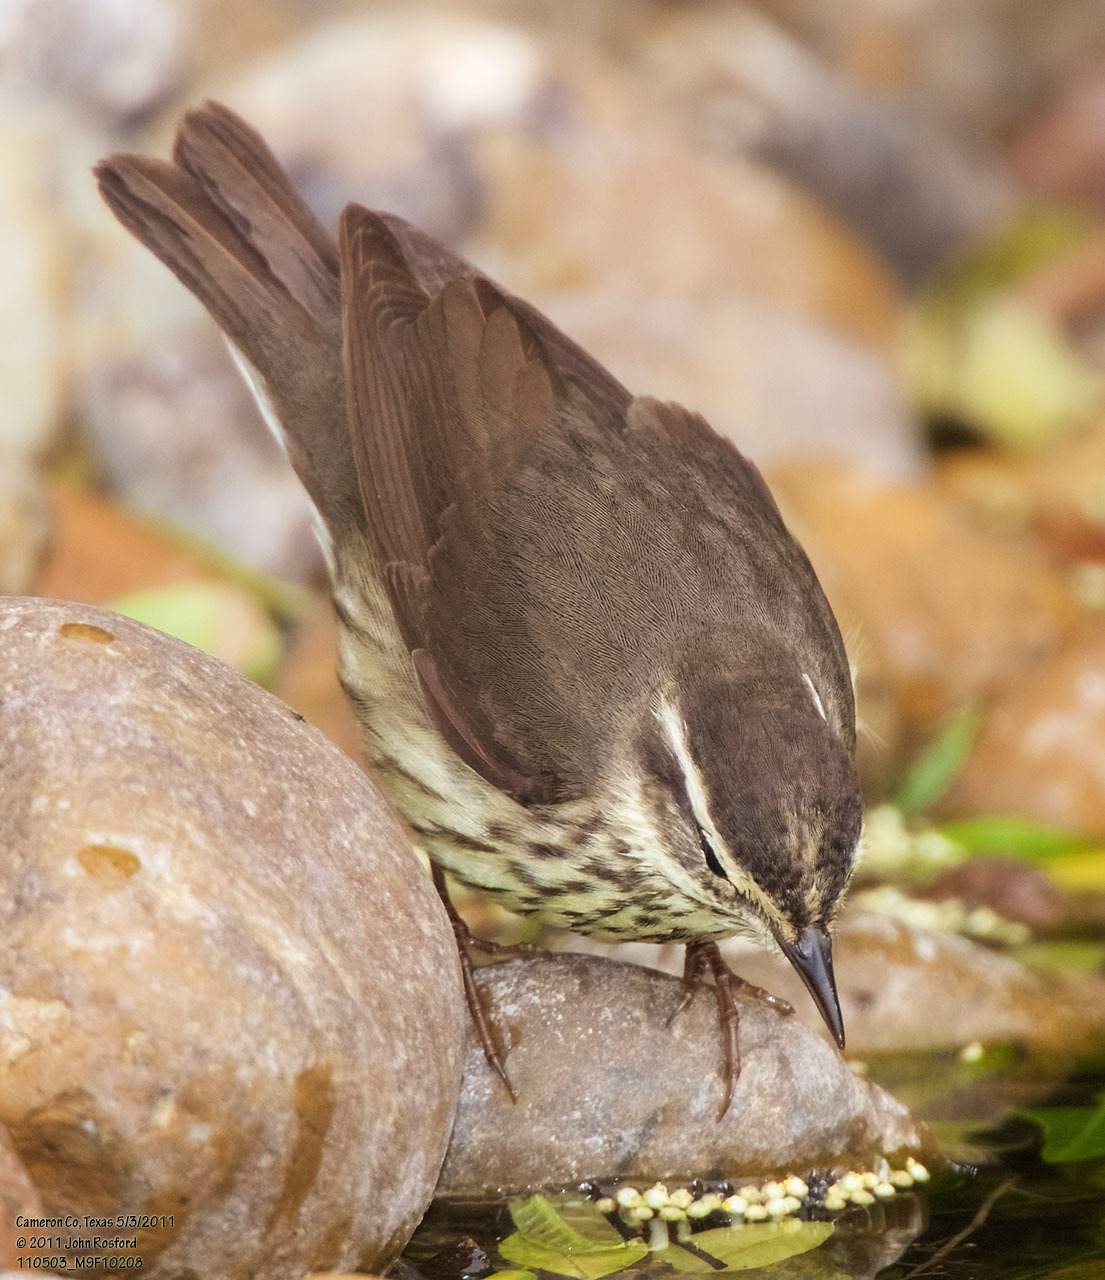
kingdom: Animalia
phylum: Chordata
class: Aves
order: Passeriformes
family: Parulidae
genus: Parkesia
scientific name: Parkesia noveboracensis
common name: Northern waterthrush
